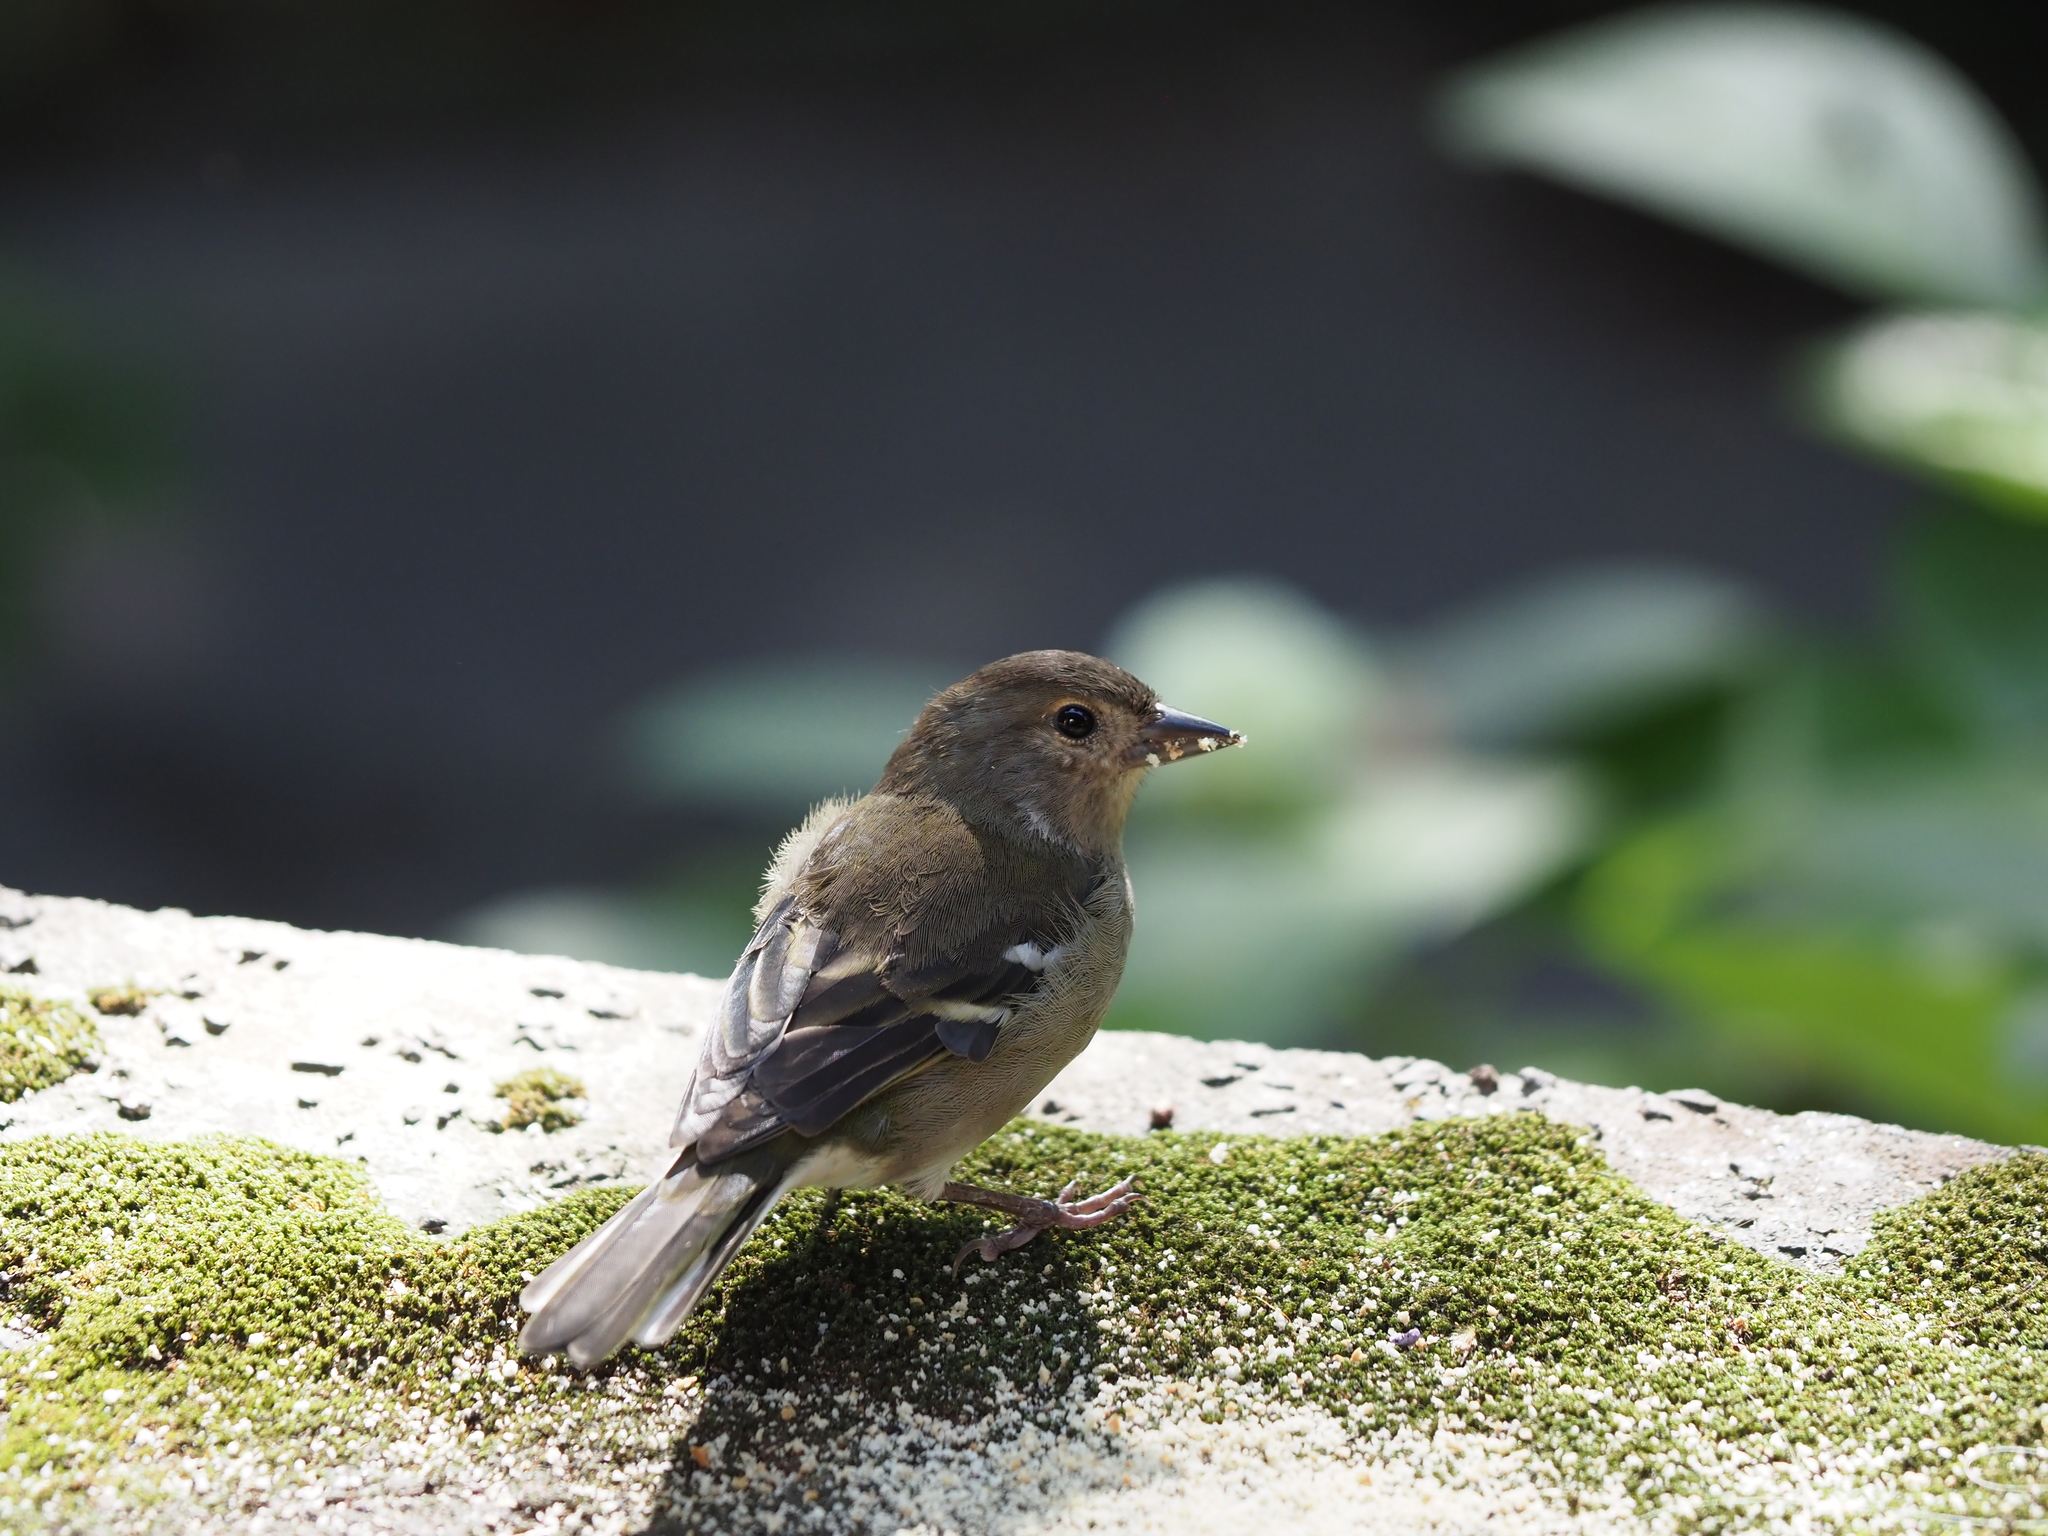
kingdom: Animalia
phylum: Chordata
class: Aves
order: Passeriformes
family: Fringillidae
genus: Fringilla
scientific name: Fringilla maderensis
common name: Madeira chaffinch
